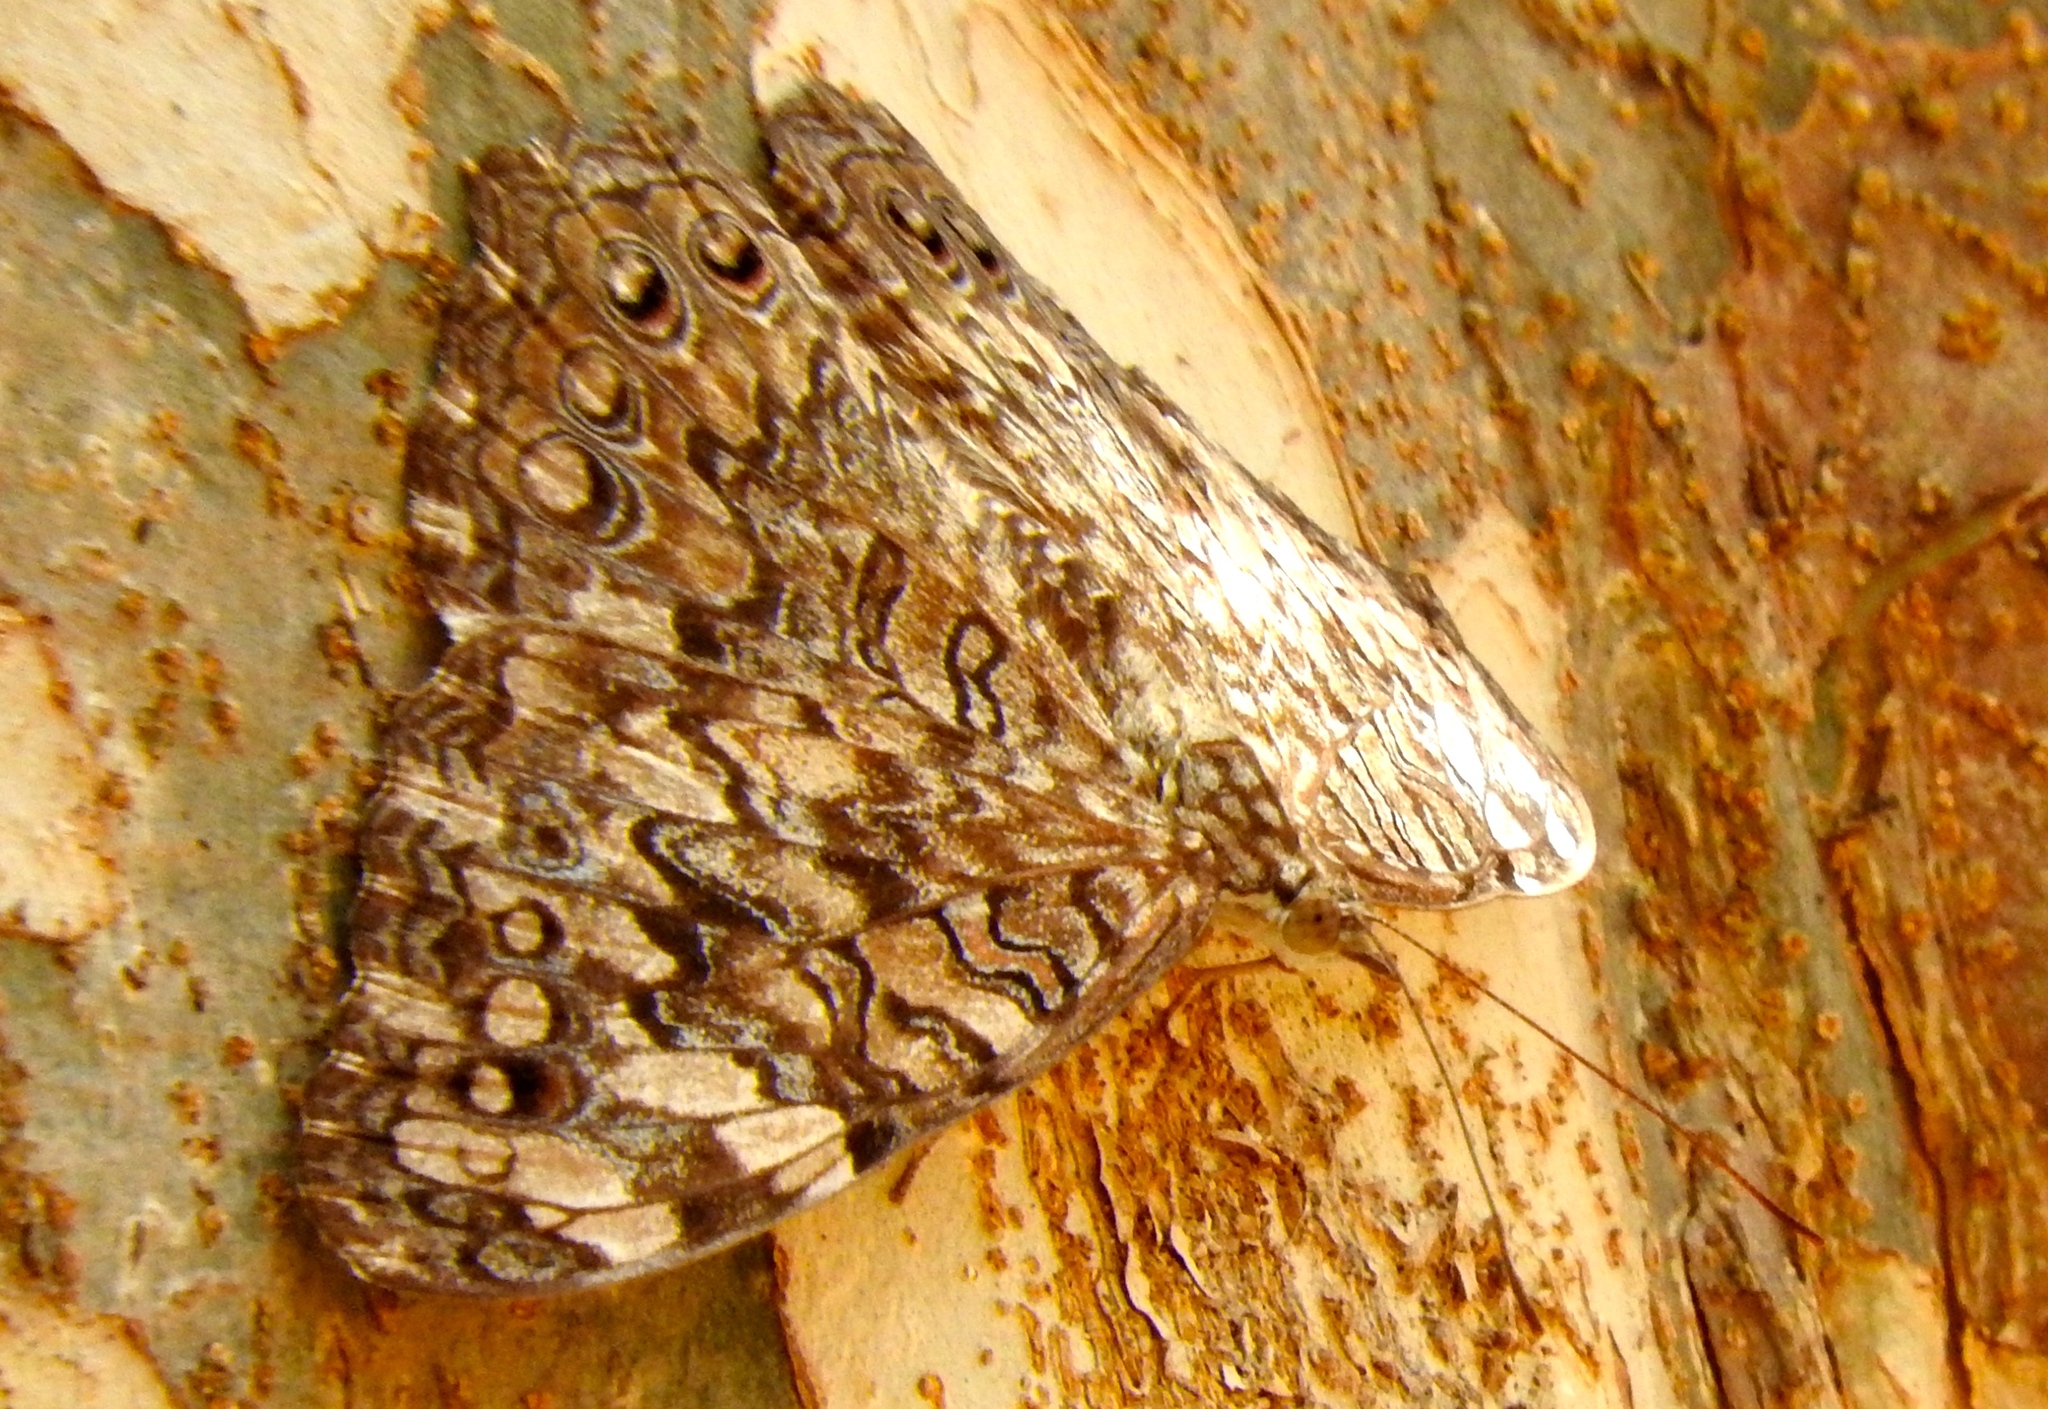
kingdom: Animalia
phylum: Arthropoda
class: Insecta
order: Lepidoptera
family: Nymphalidae
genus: Hamadryas
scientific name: Hamadryas februa
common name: Gray cracker
